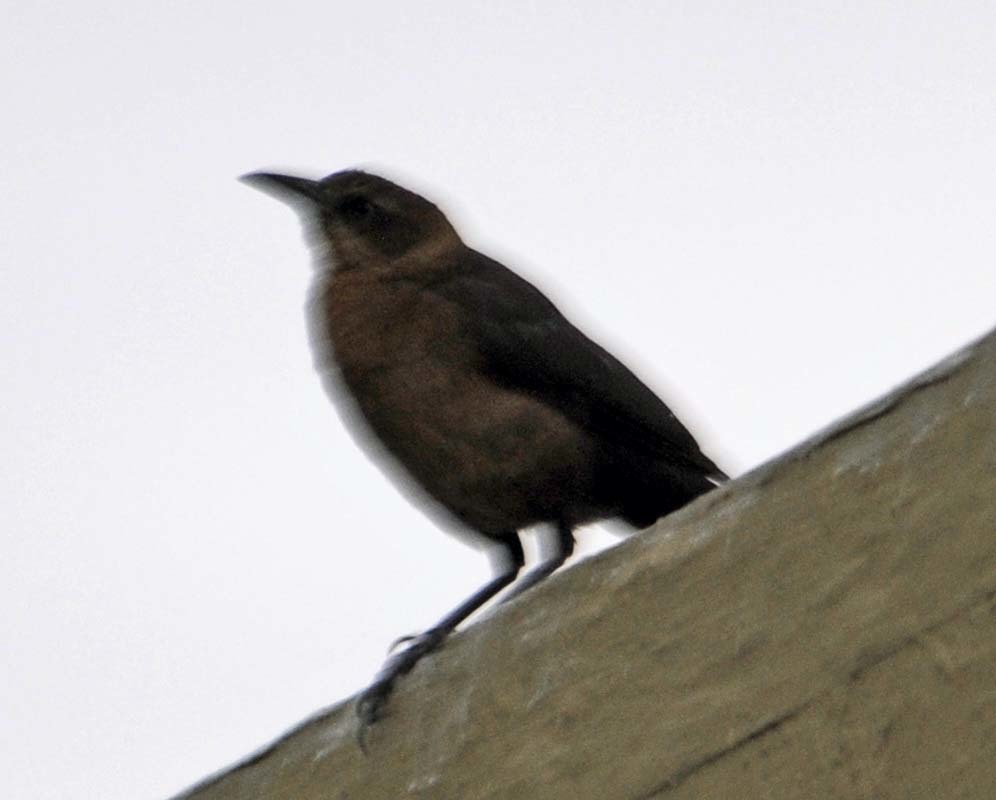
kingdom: Animalia
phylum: Chordata
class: Aves
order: Passeriformes
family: Icteridae
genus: Quiscalus
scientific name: Quiscalus mexicanus
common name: Great-tailed grackle
